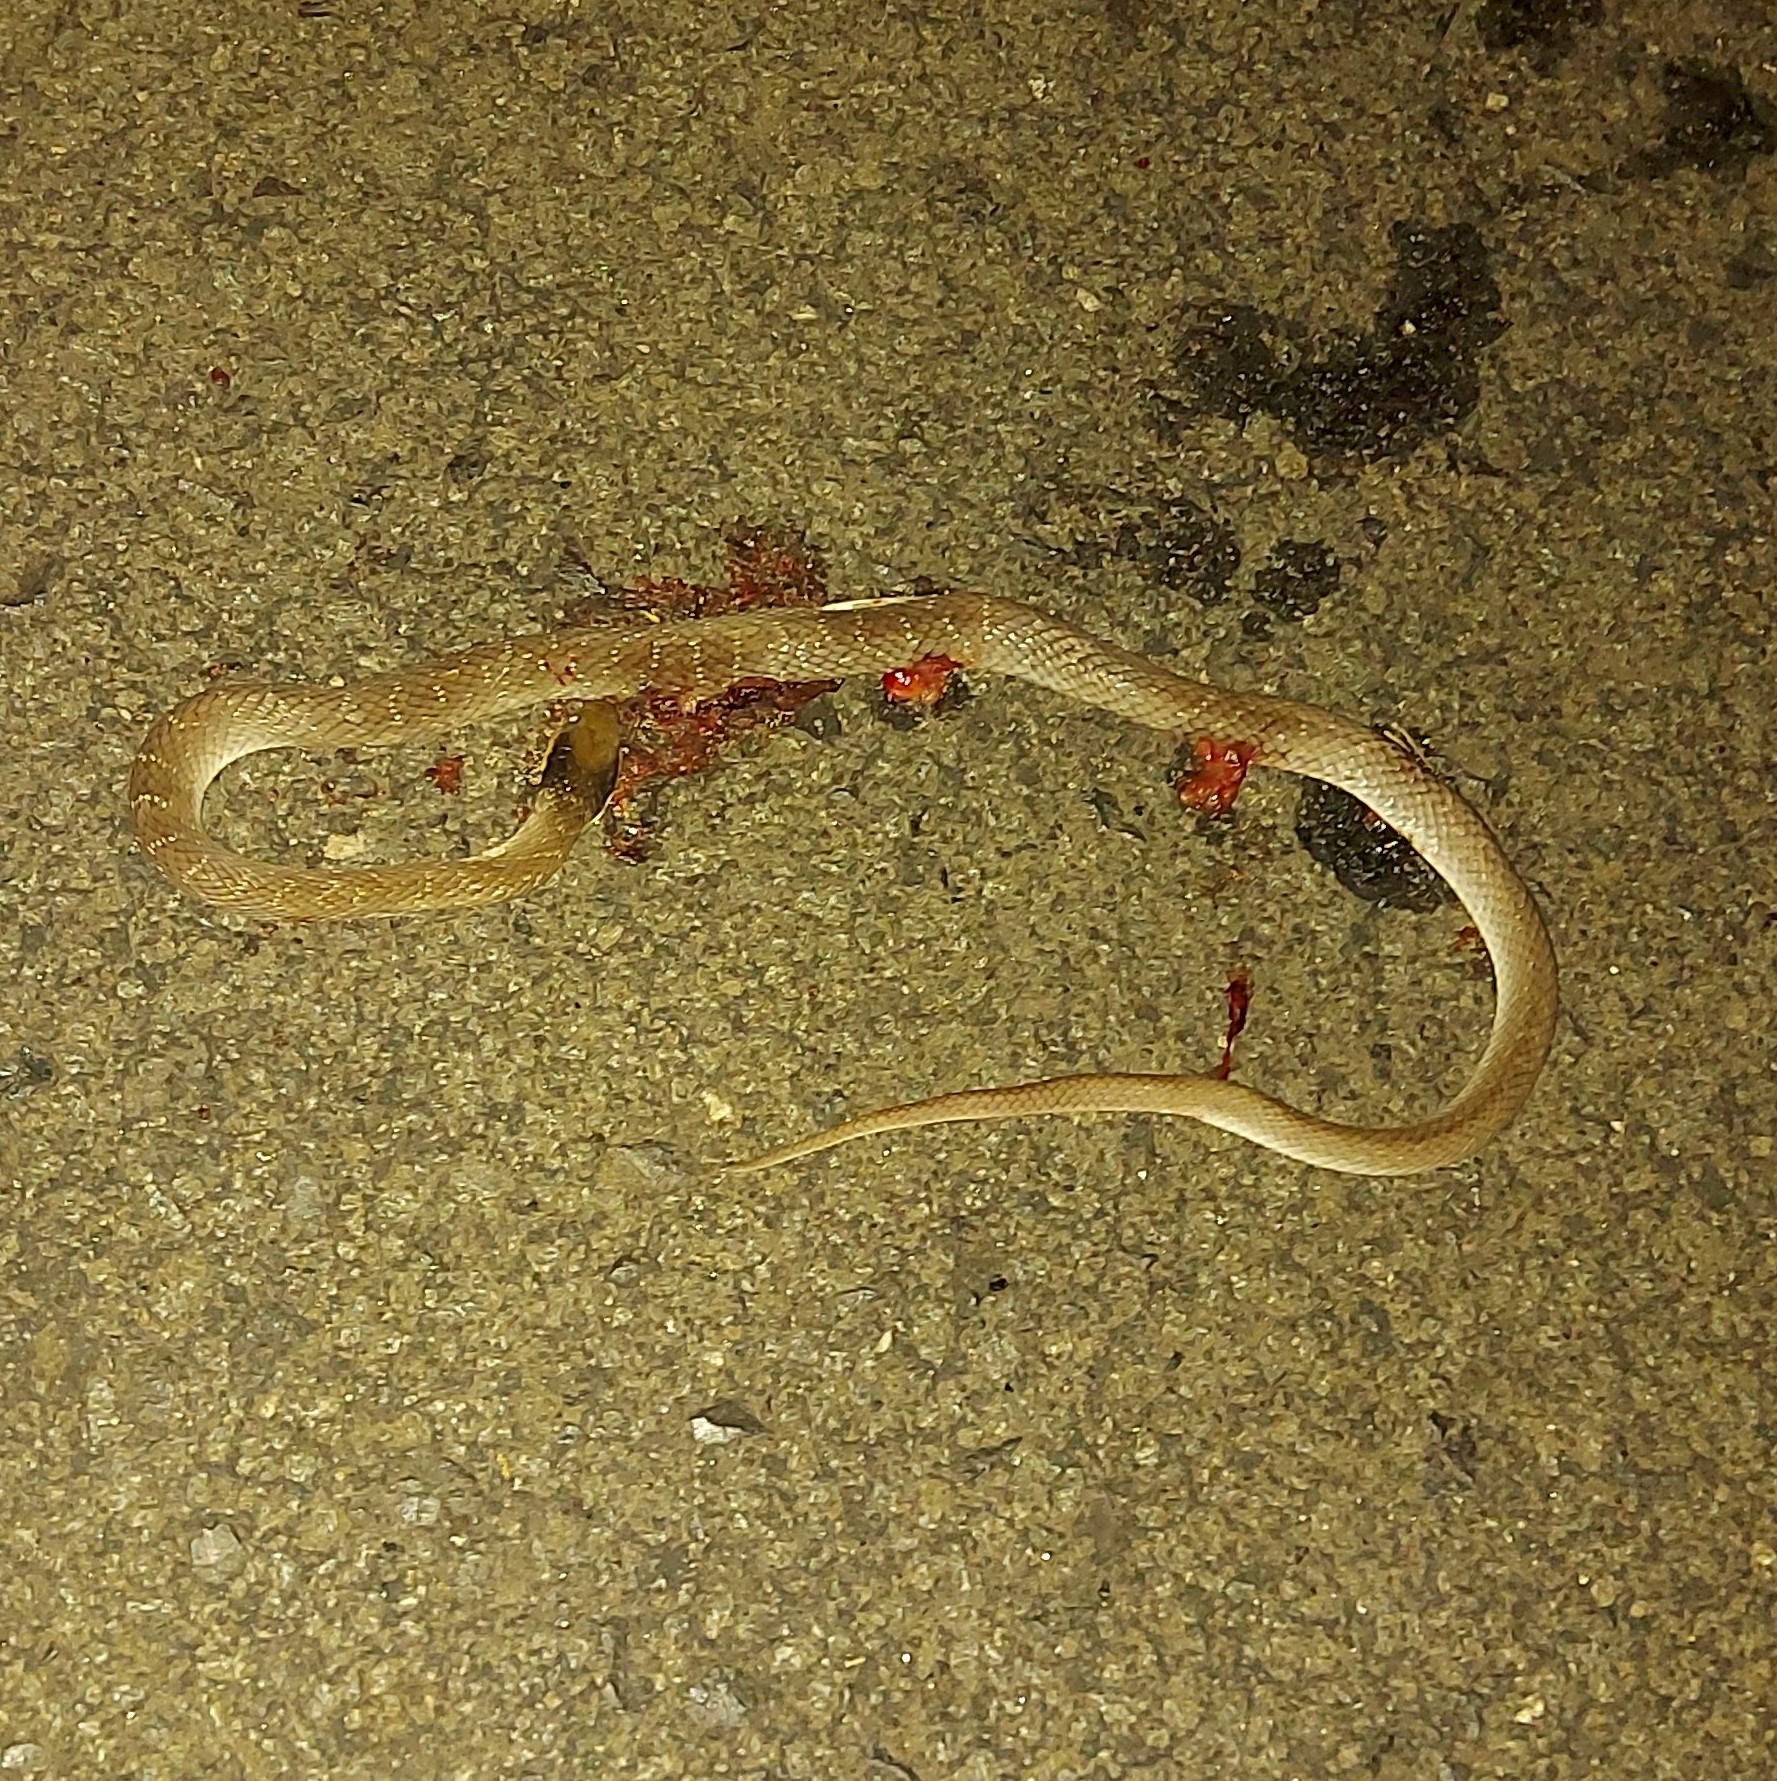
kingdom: Animalia
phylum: Chordata
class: Squamata
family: Colubridae
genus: Crotaphopeltis
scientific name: Crotaphopeltis hotamboeia
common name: Red-lipped snake
